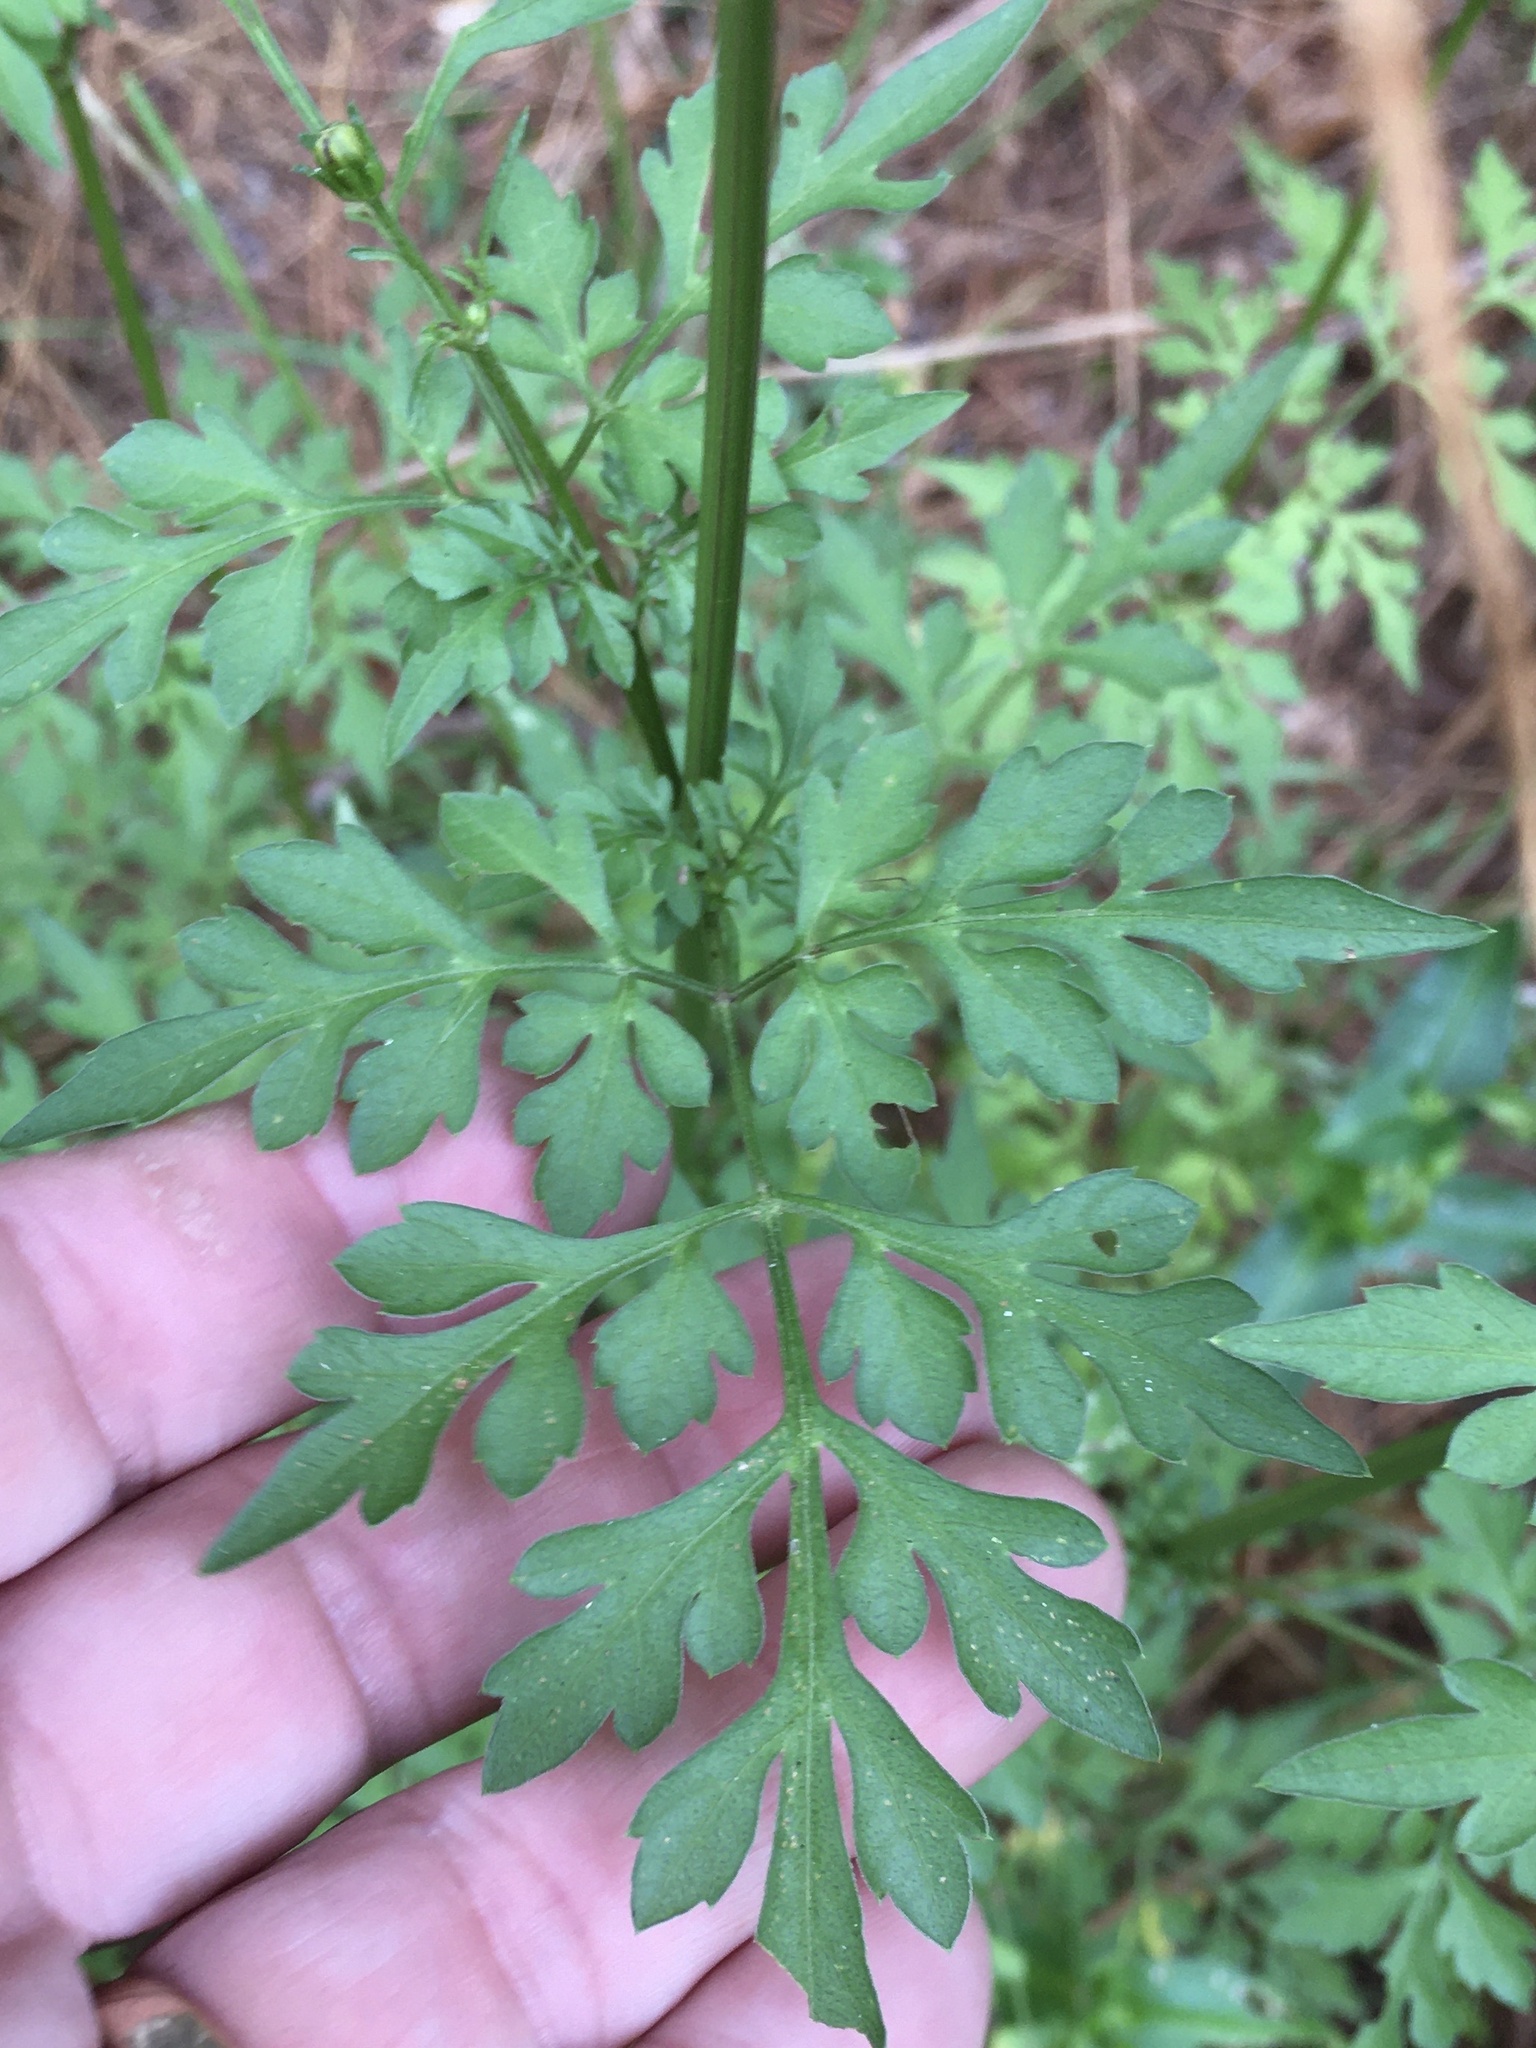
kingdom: Plantae
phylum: Tracheophyta
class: Magnoliopsida
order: Asterales
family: Asteraceae
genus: Bidens
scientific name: Bidens bipinnata
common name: Spanish-needles
